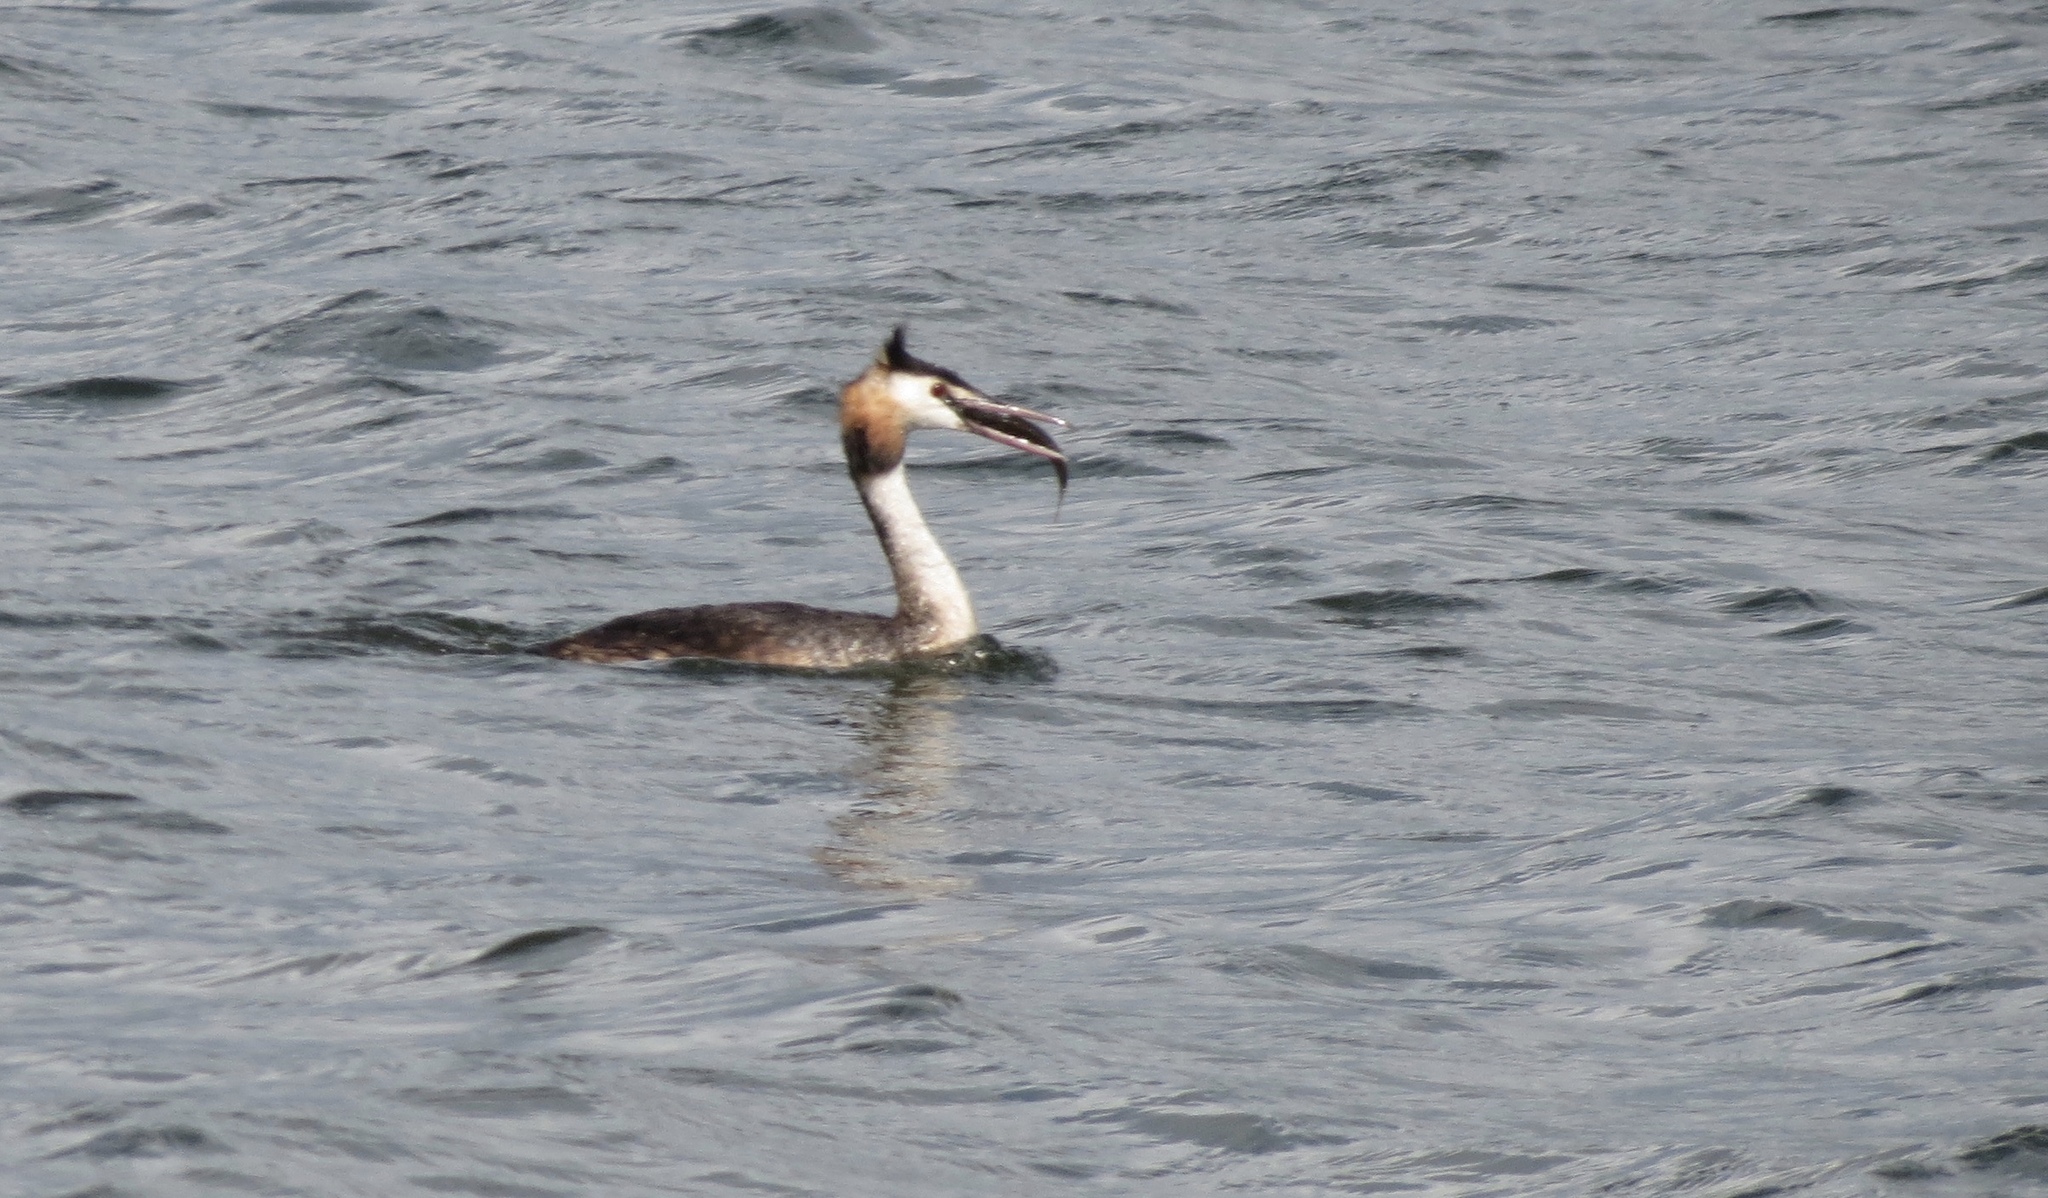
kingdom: Animalia
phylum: Chordata
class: Aves
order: Podicipediformes
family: Podicipedidae
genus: Podiceps
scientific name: Podiceps cristatus
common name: Great crested grebe
